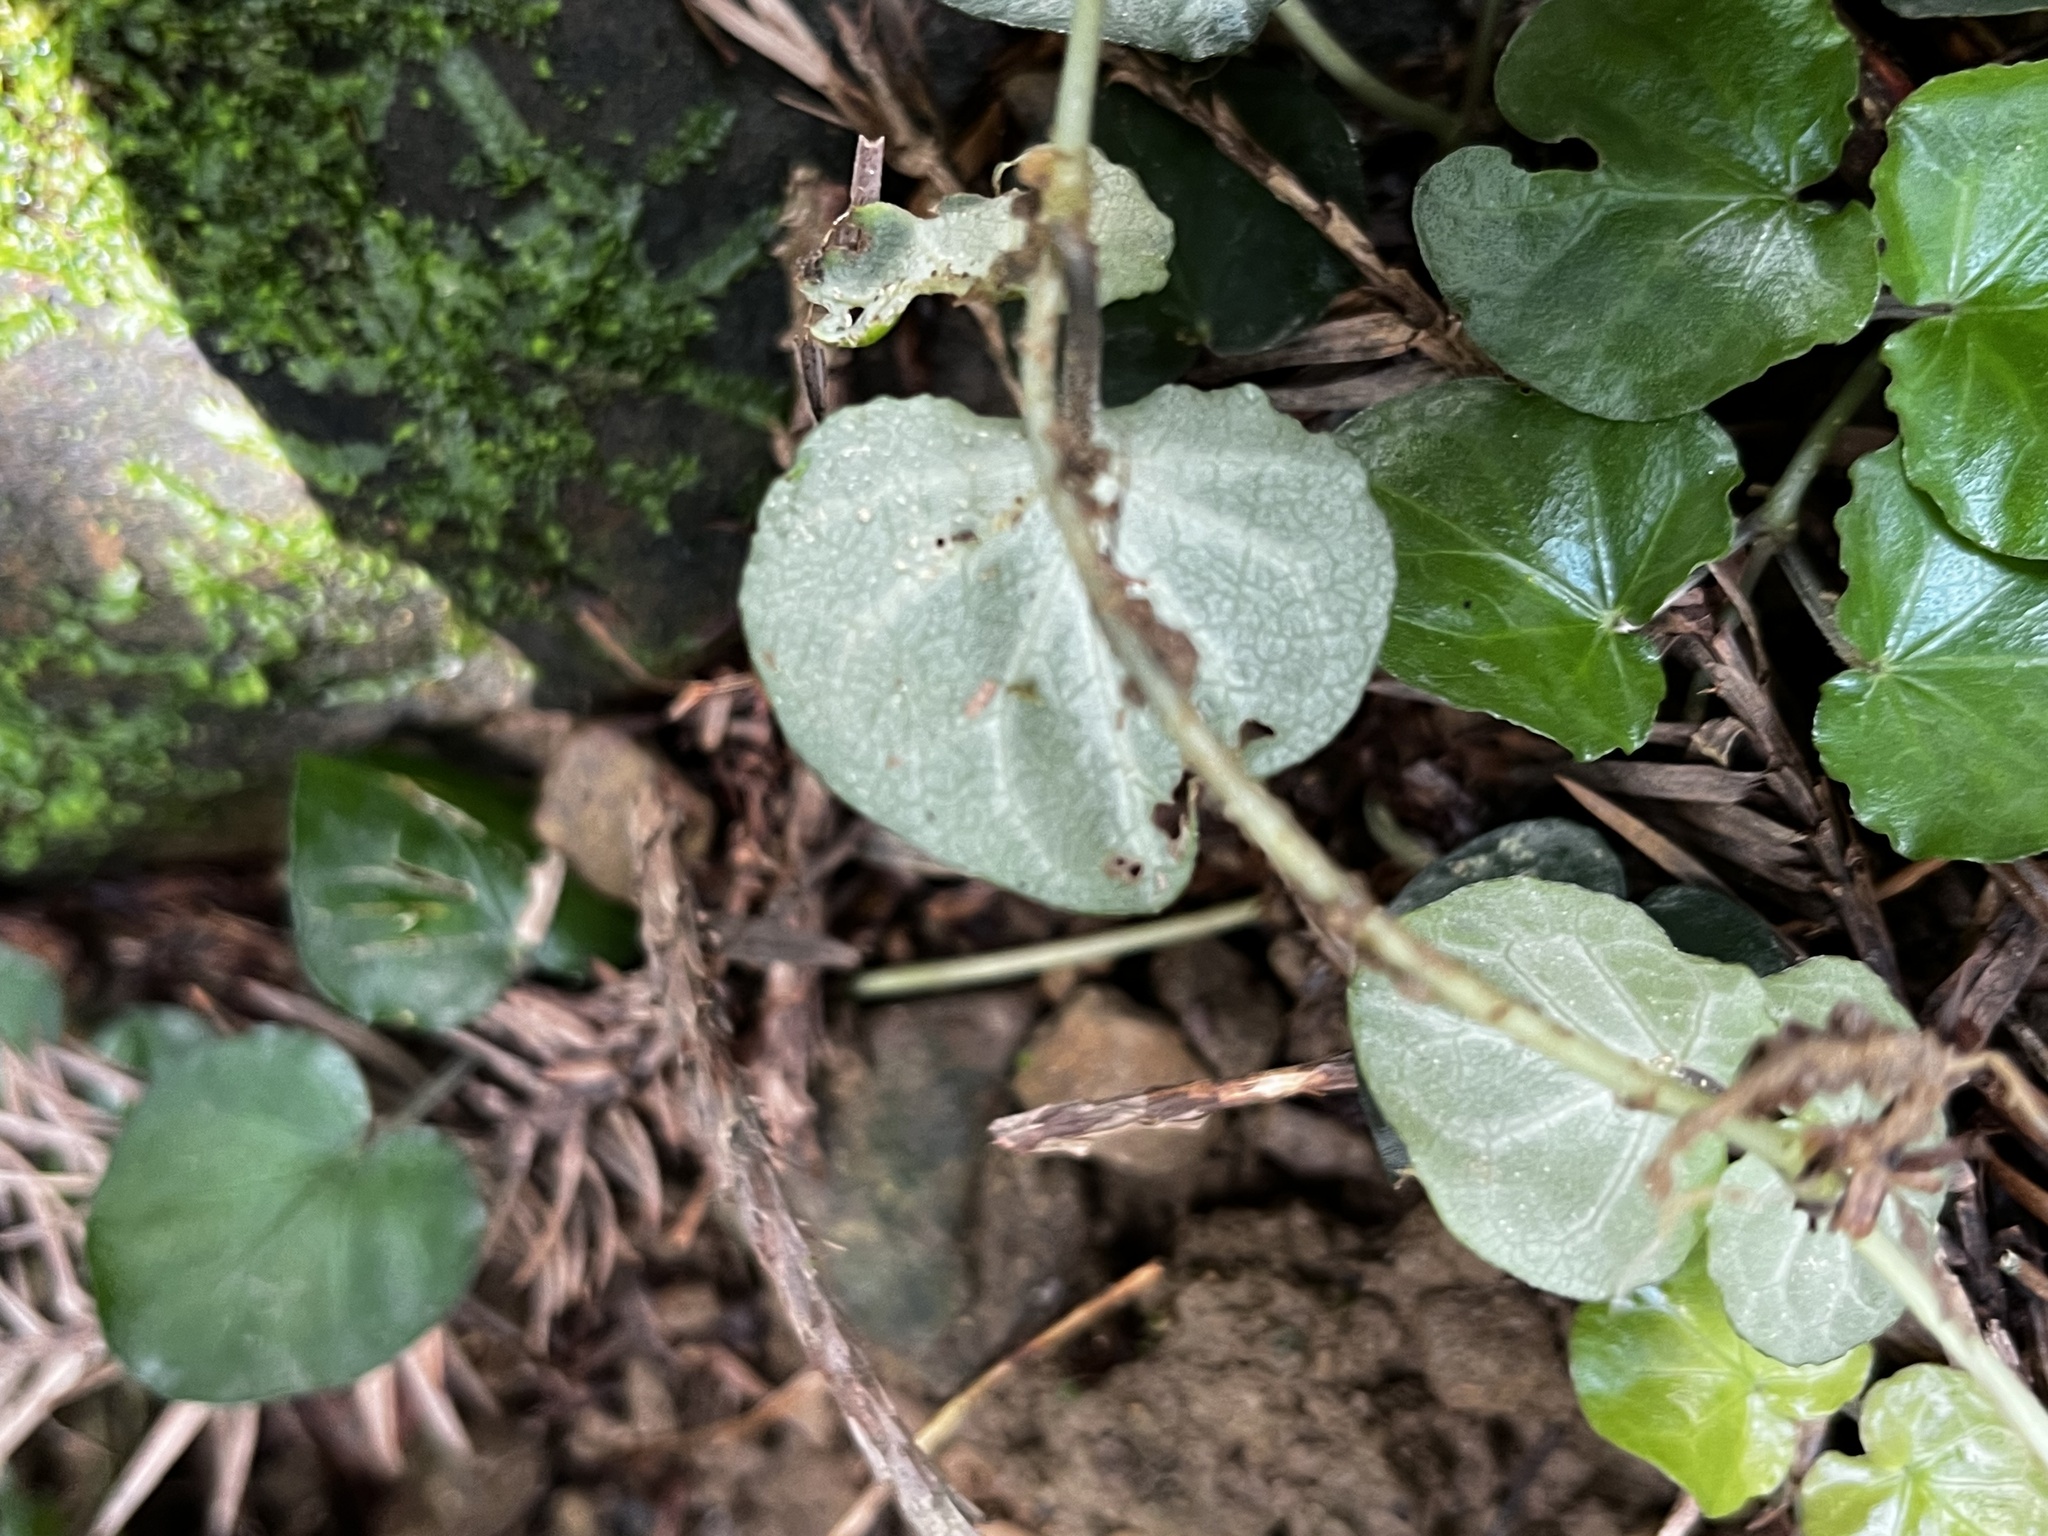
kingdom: Plantae
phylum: Tracheophyta
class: Magnoliopsida
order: Gentianales
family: Rubiaceae
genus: Geophila
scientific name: Geophila herbacea
